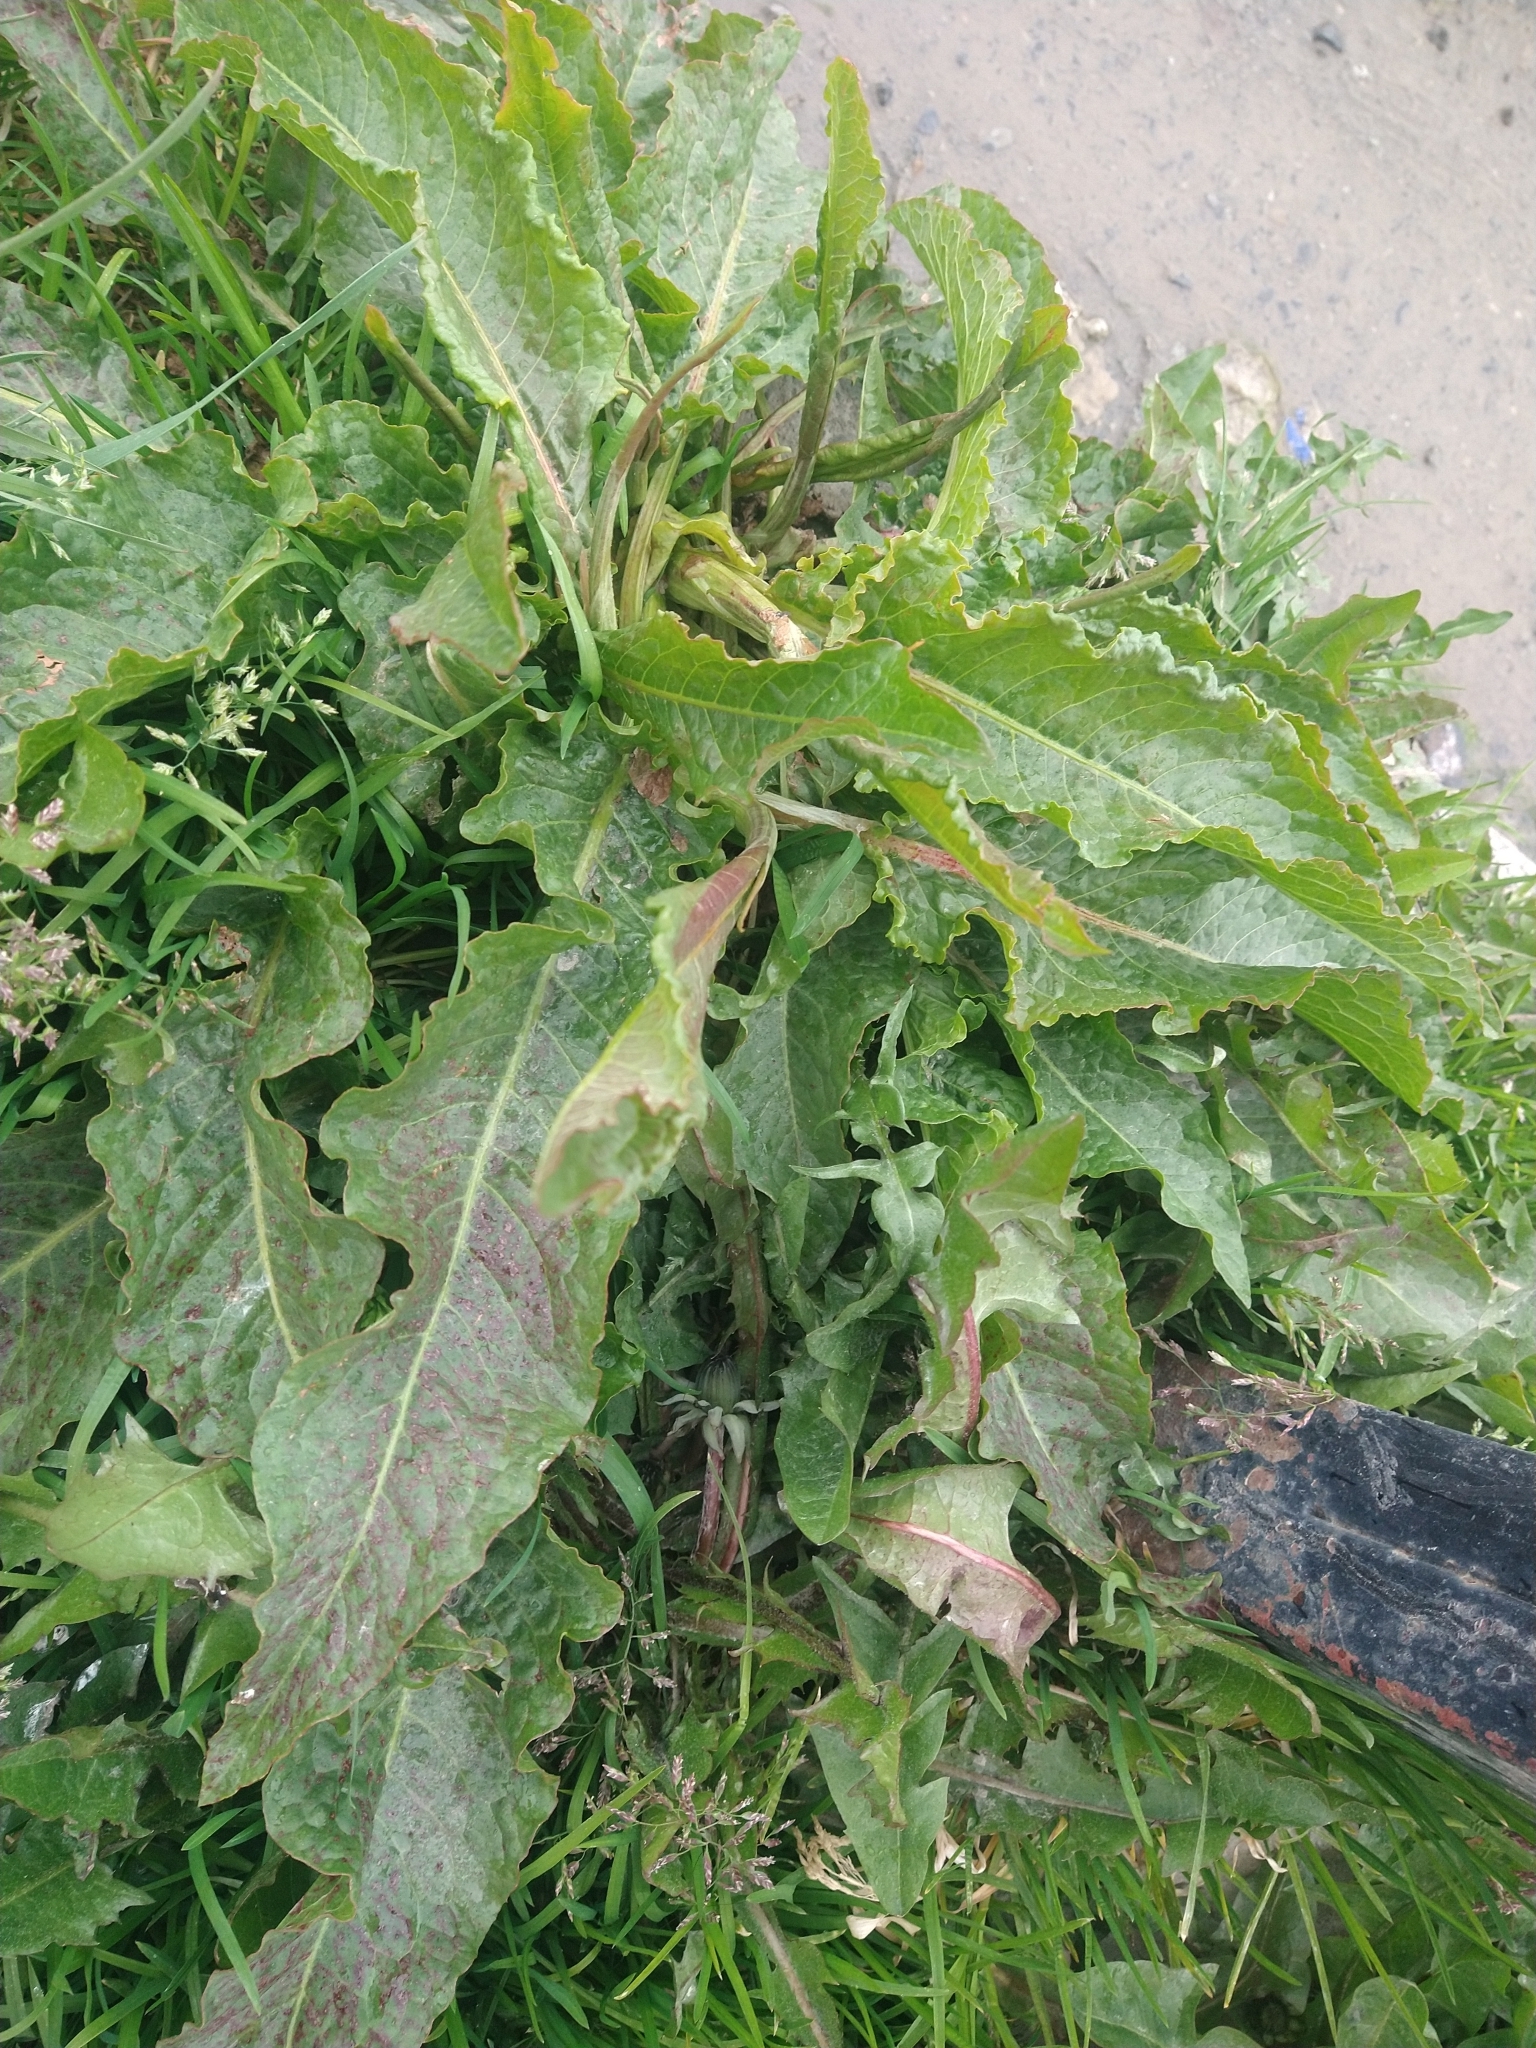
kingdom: Plantae
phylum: Tracheophyta
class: Magnoliopsida
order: Caryophyllales
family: Polygonaceae
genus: Rumex
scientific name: Rumex crispus
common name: Curled dock
